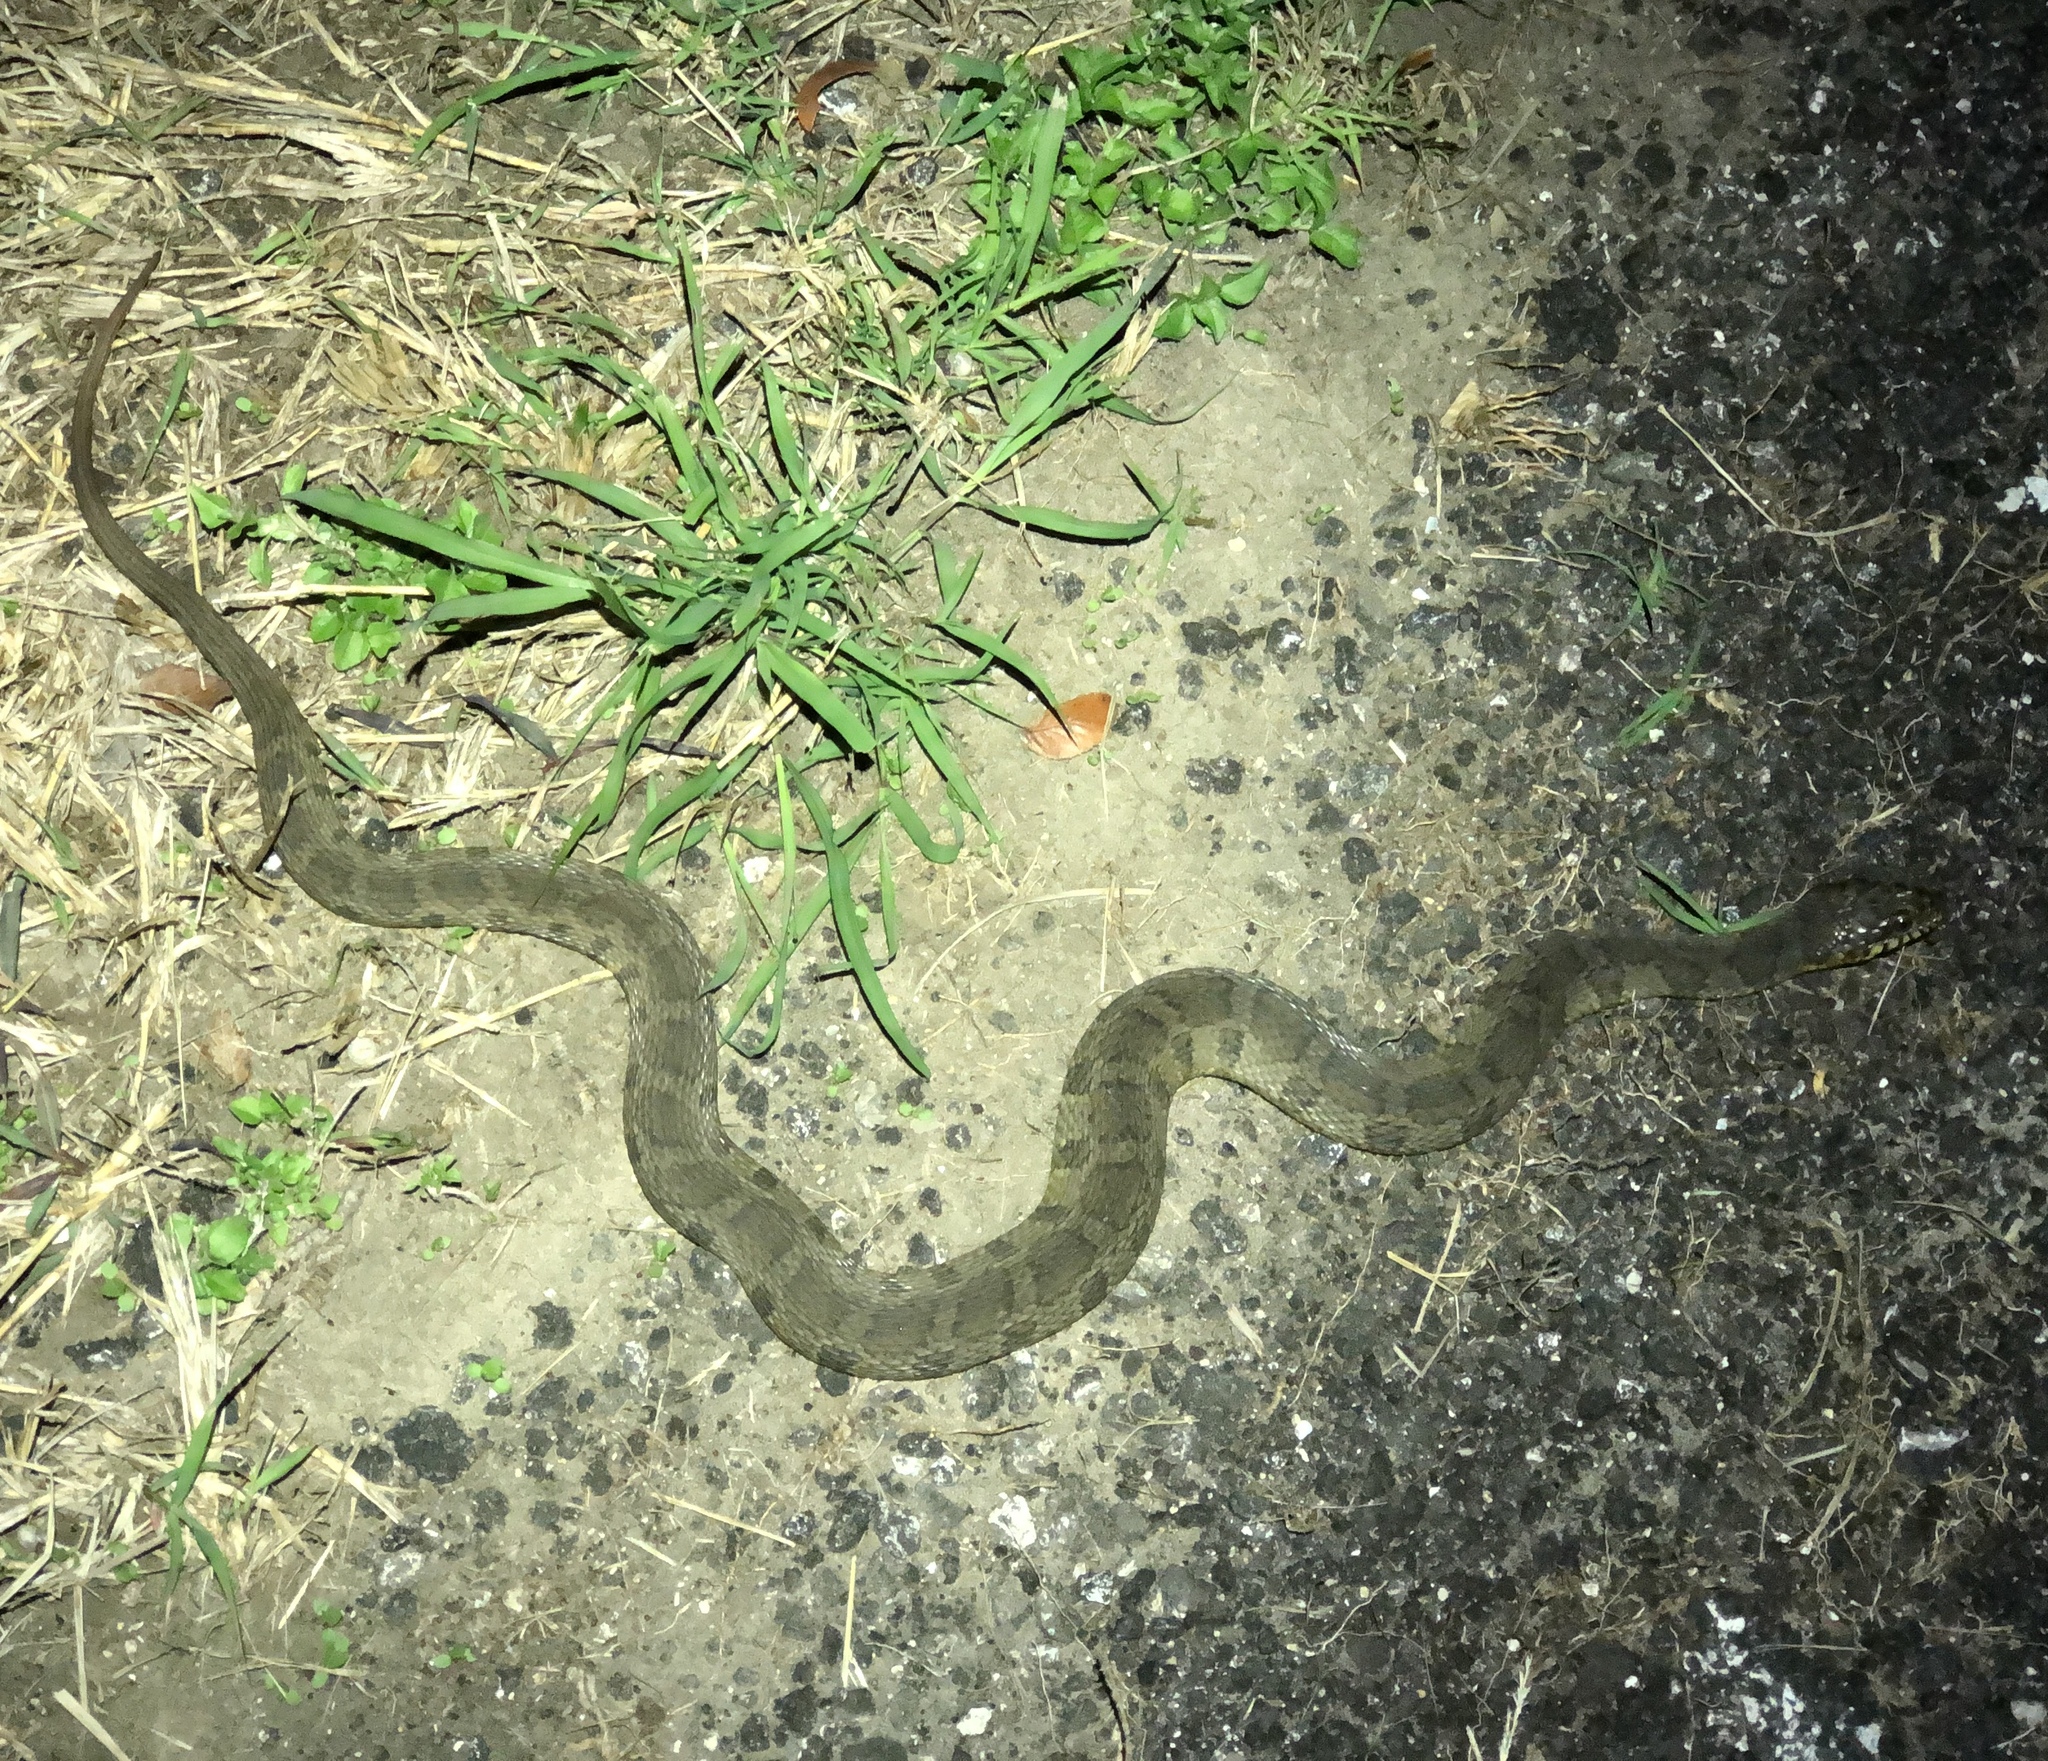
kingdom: Animalia
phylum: Chordata
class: Squamata
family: Colubridae
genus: Nerodia
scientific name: Nerodia erythrogaster
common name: Plainbelly water snake
